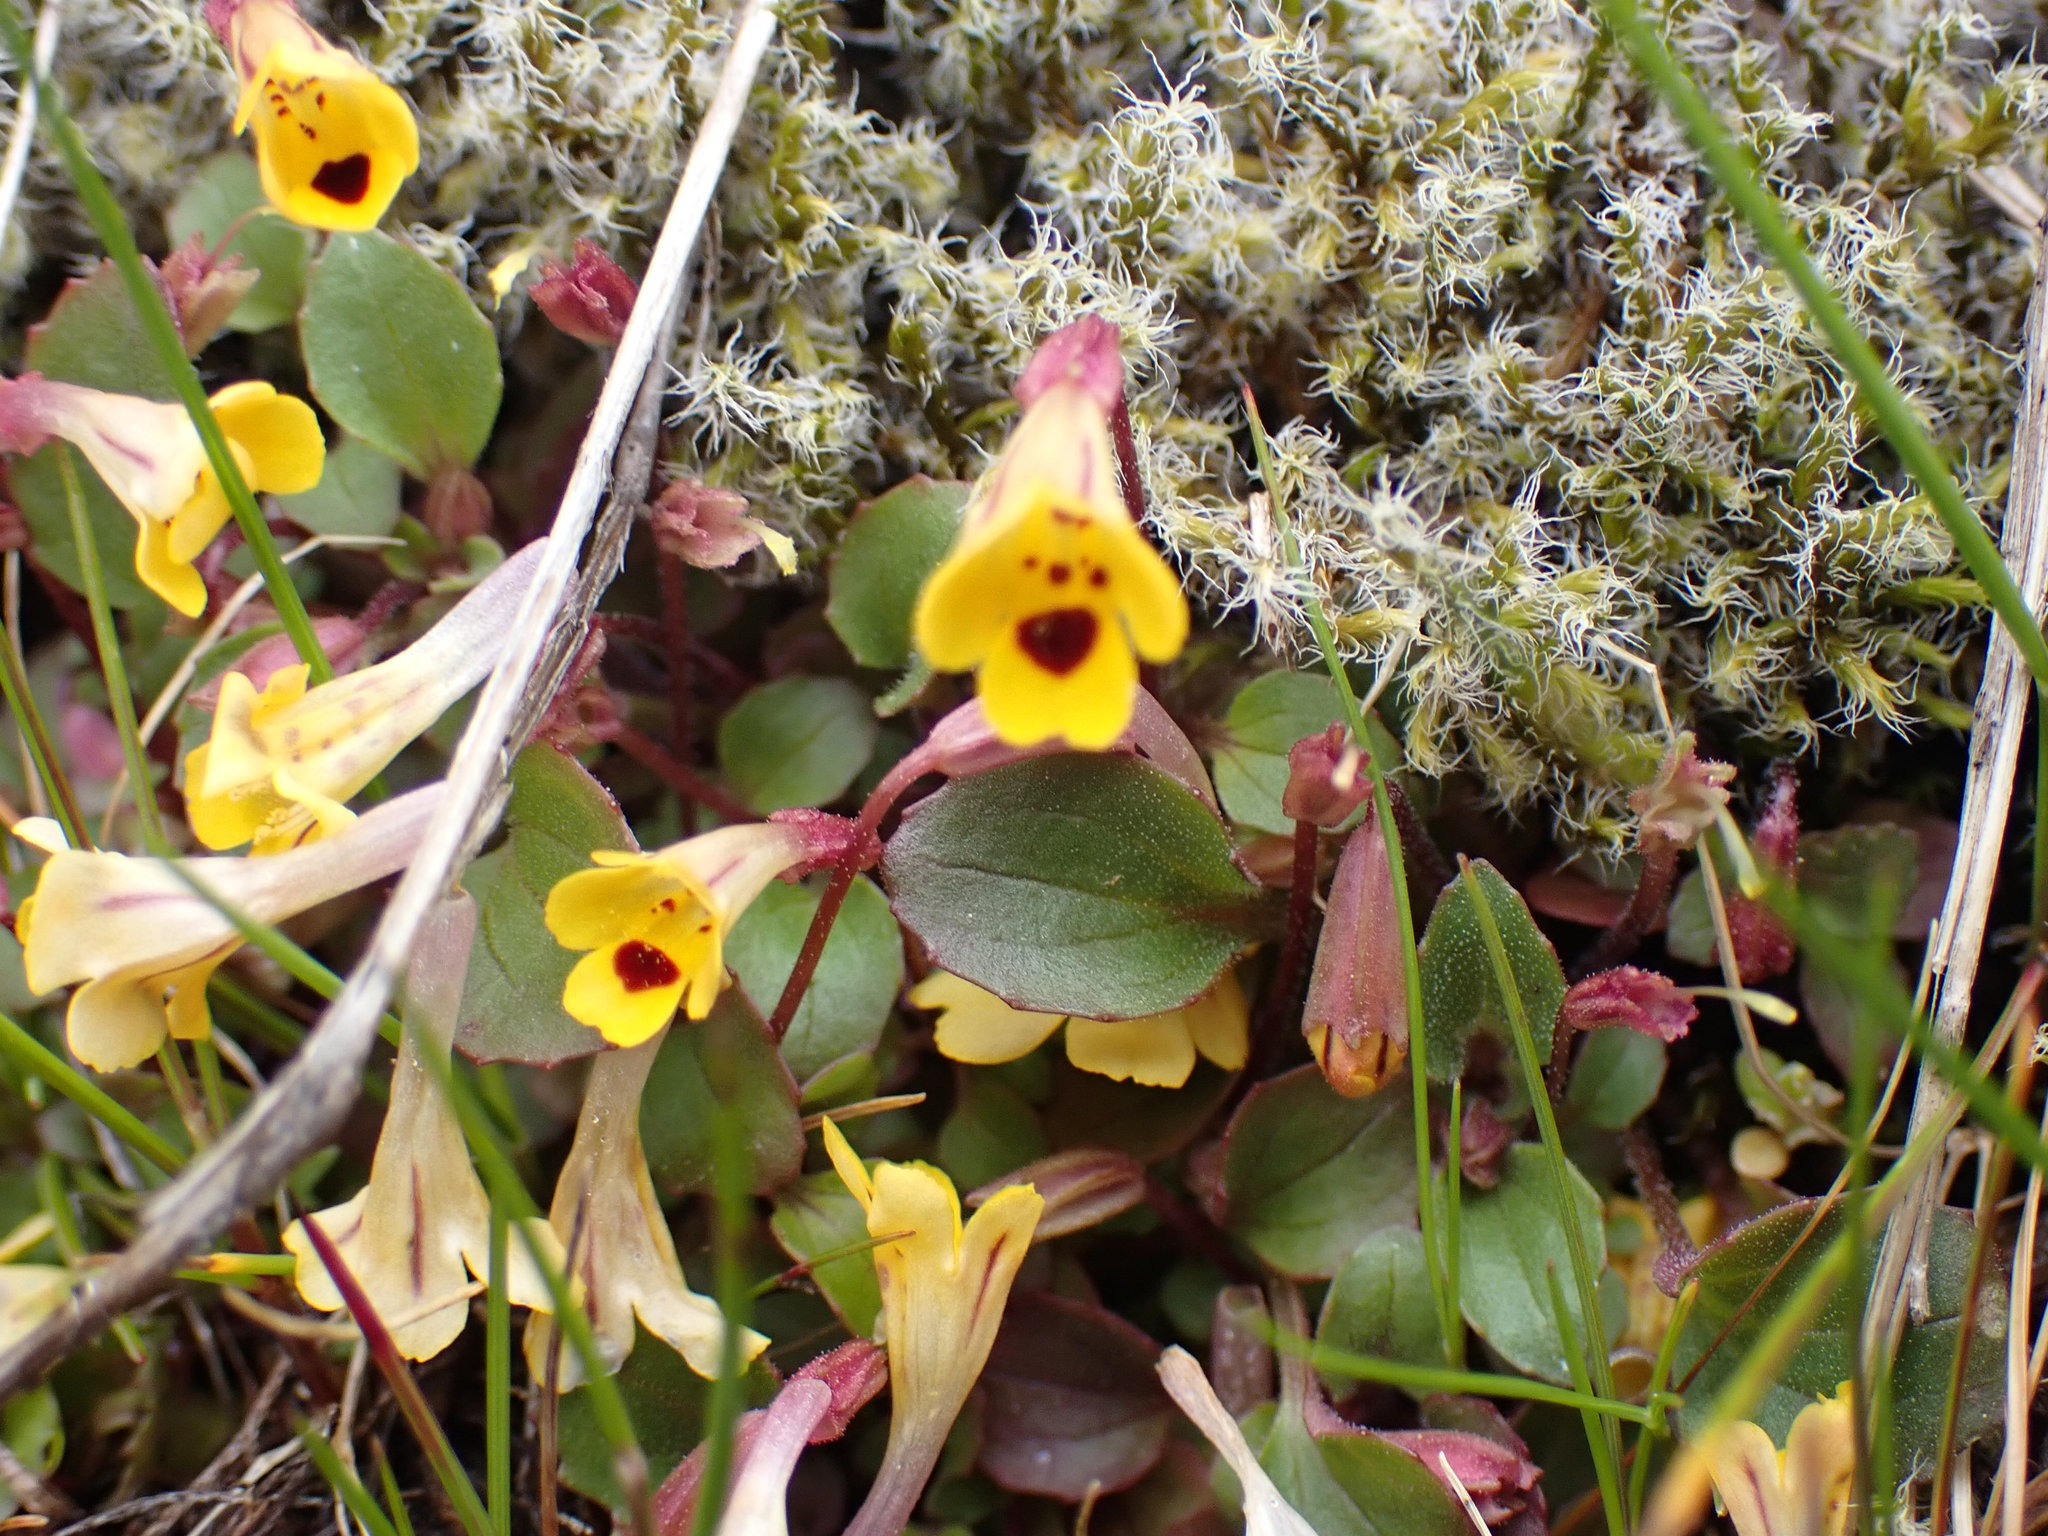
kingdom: Plantae
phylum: Tracheophyta
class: Magnoliopsida
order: Lamiales
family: Phrymaceae
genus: Erythranthe
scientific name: Erythranthe alsinoides
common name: Chickweed monkeyflower
